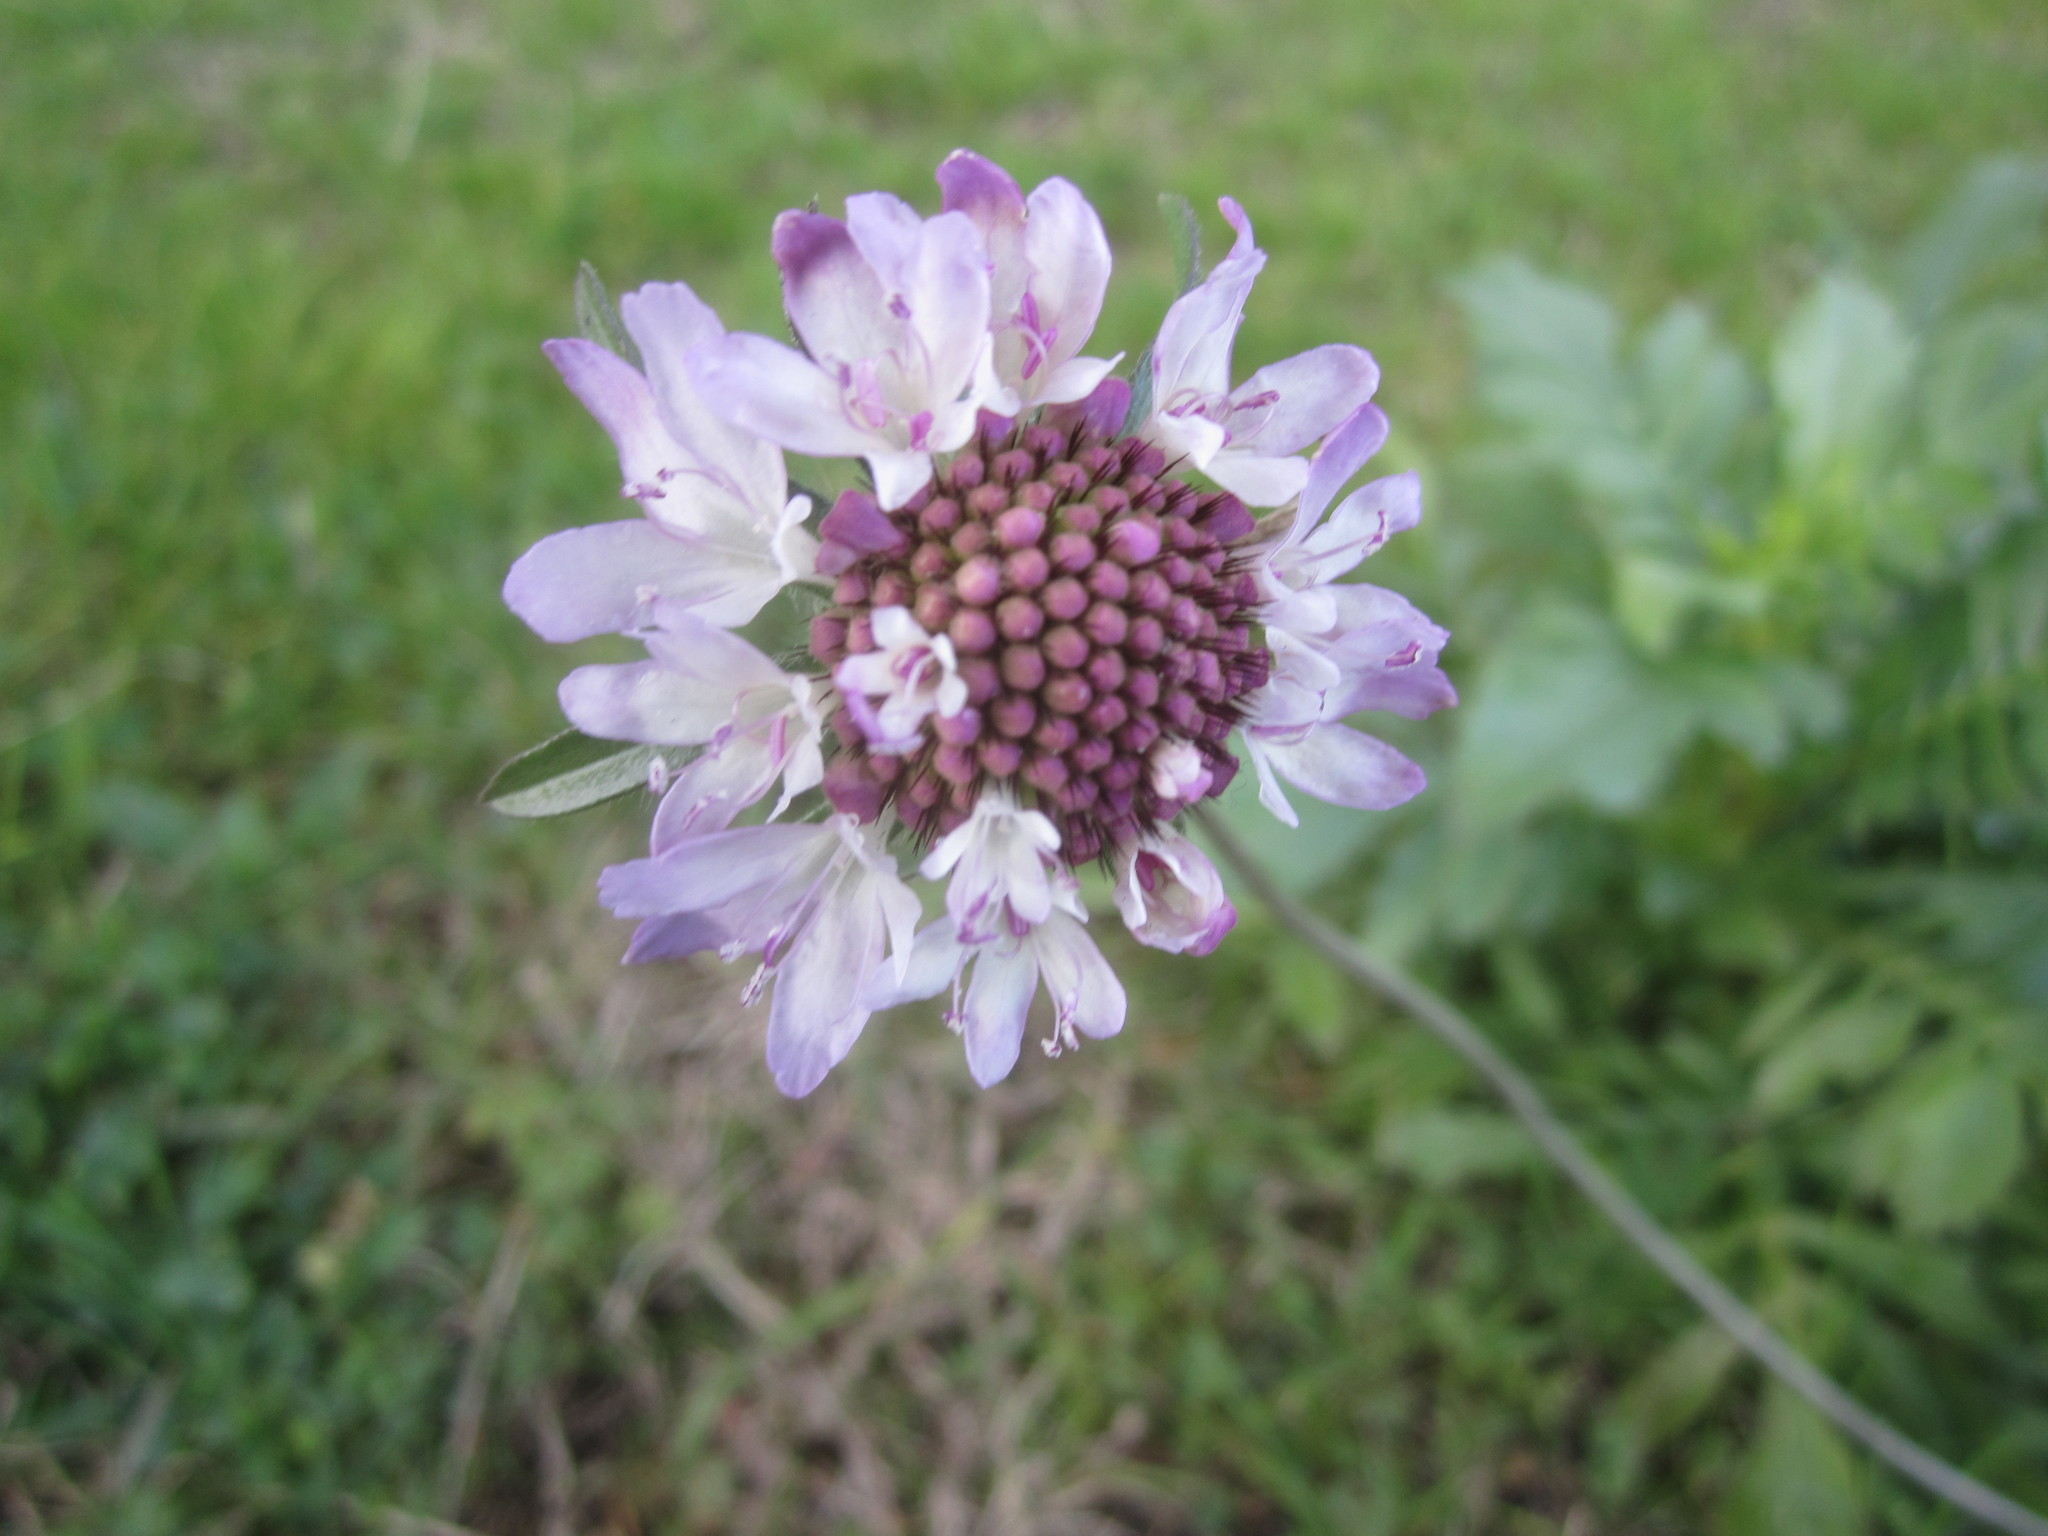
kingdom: Plantae
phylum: Tracheophyta
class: Magnoliopsida
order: Dipsacales
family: Caprifoliaceae
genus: Sixalix
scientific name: Sixalix atropurpurea
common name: Sweet scabious
